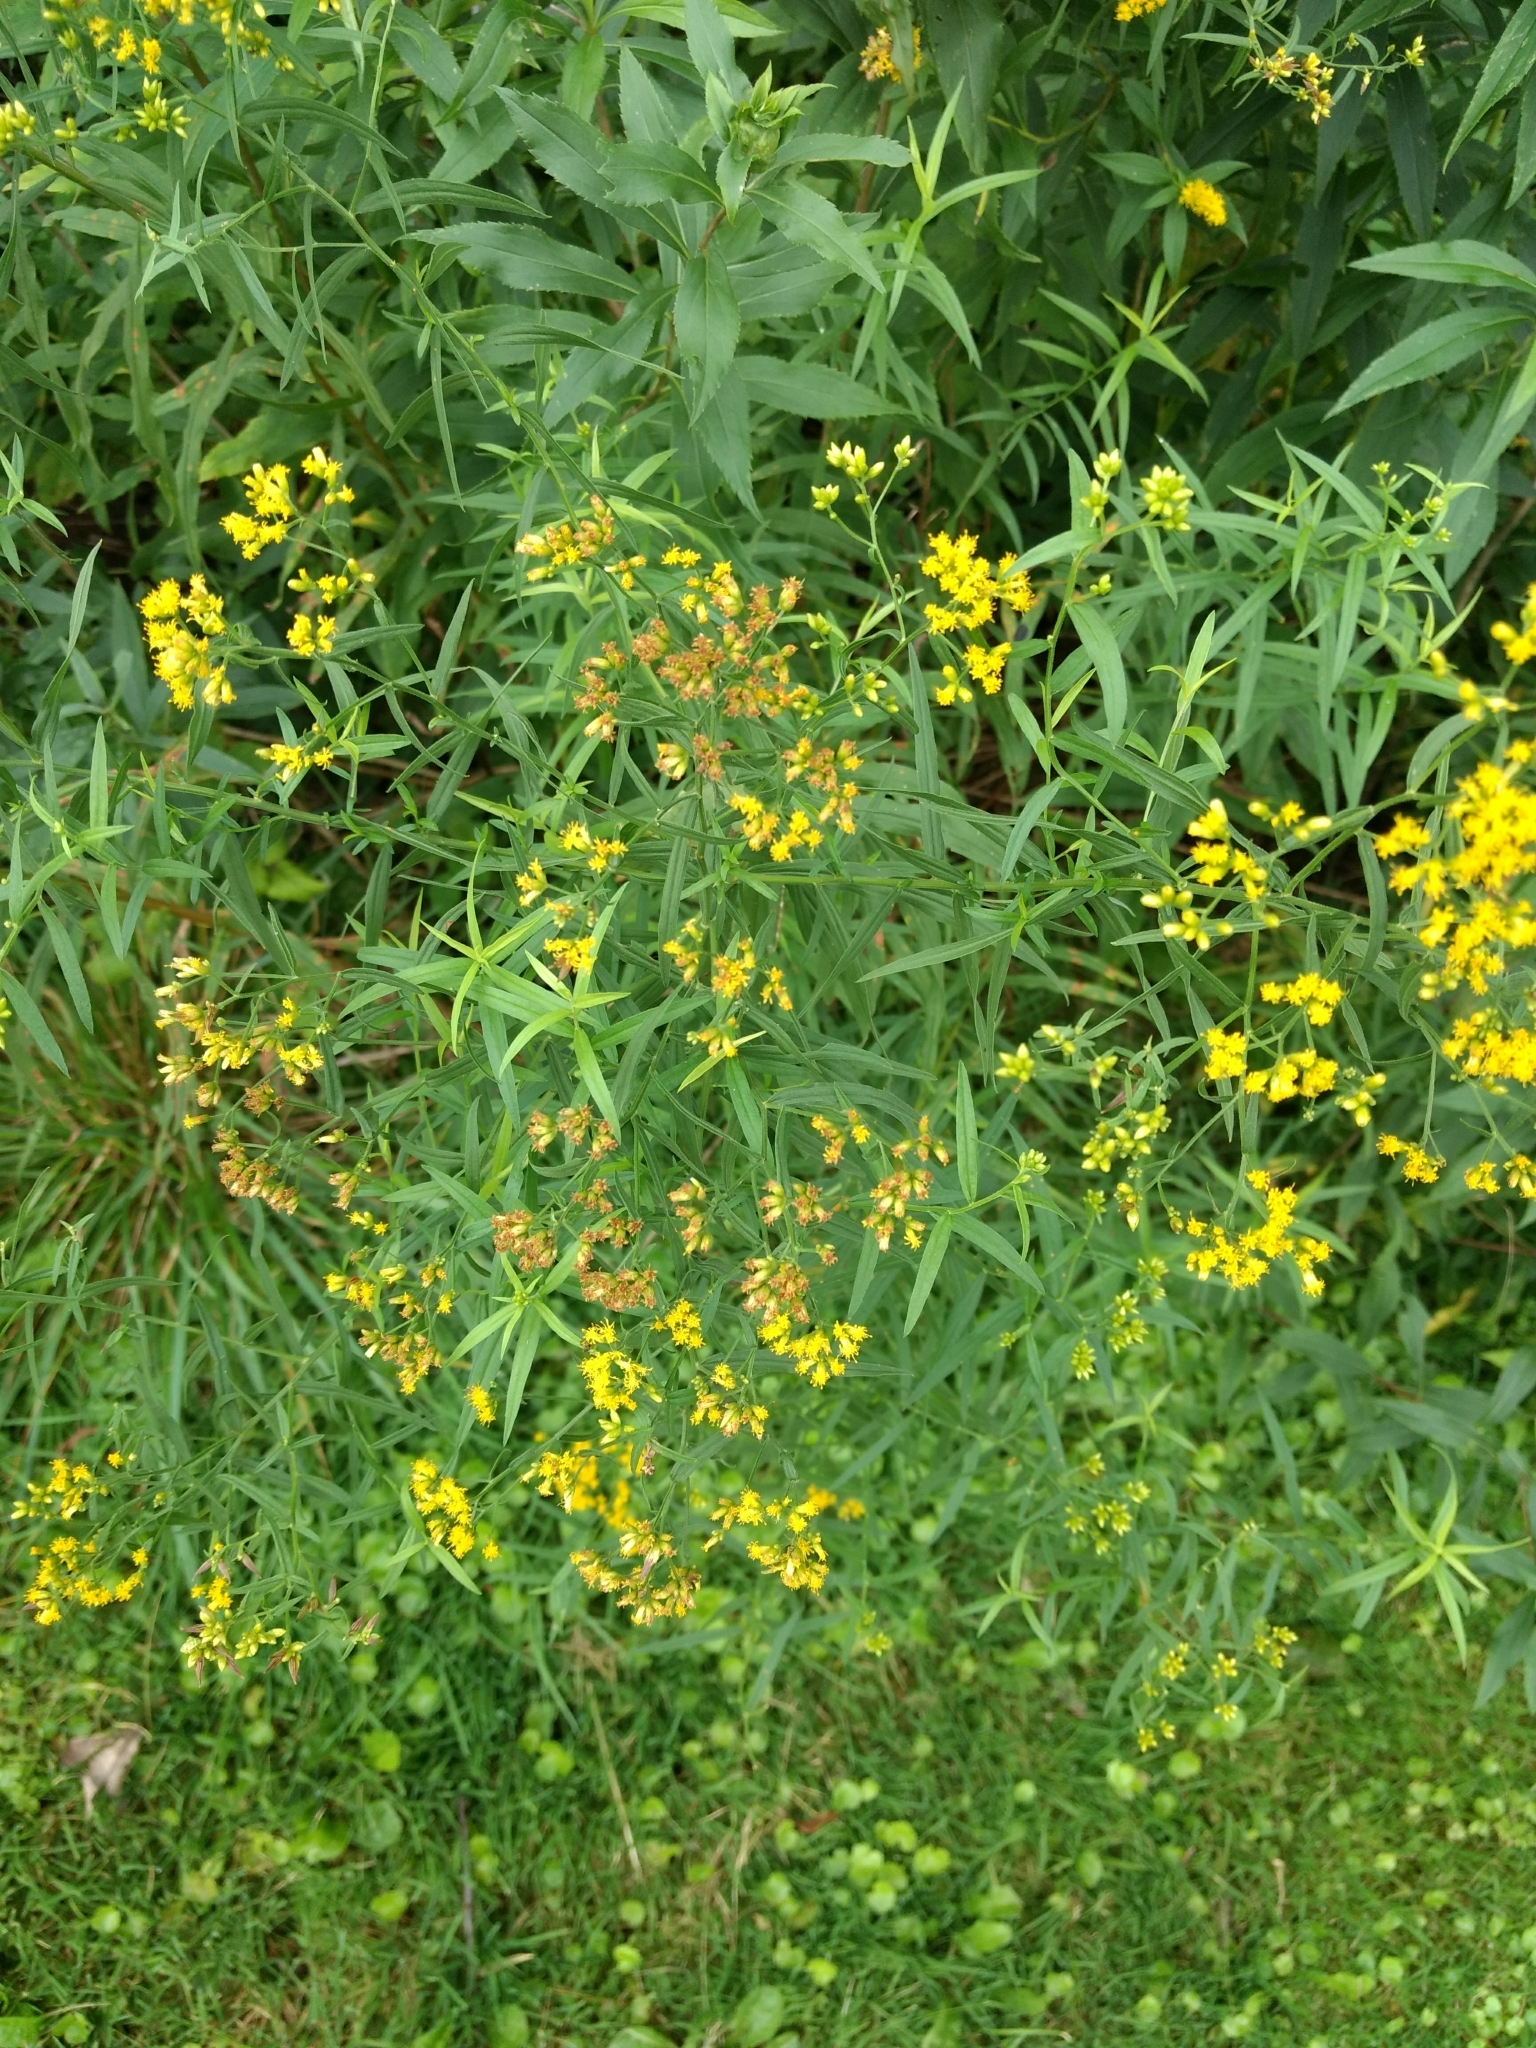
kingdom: Plantae
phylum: Tracheophyta
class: Magnoliopsida
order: Asterales
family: Asteraceae
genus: Euthamia
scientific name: Euthamia graminifolia
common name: Common goldentop
